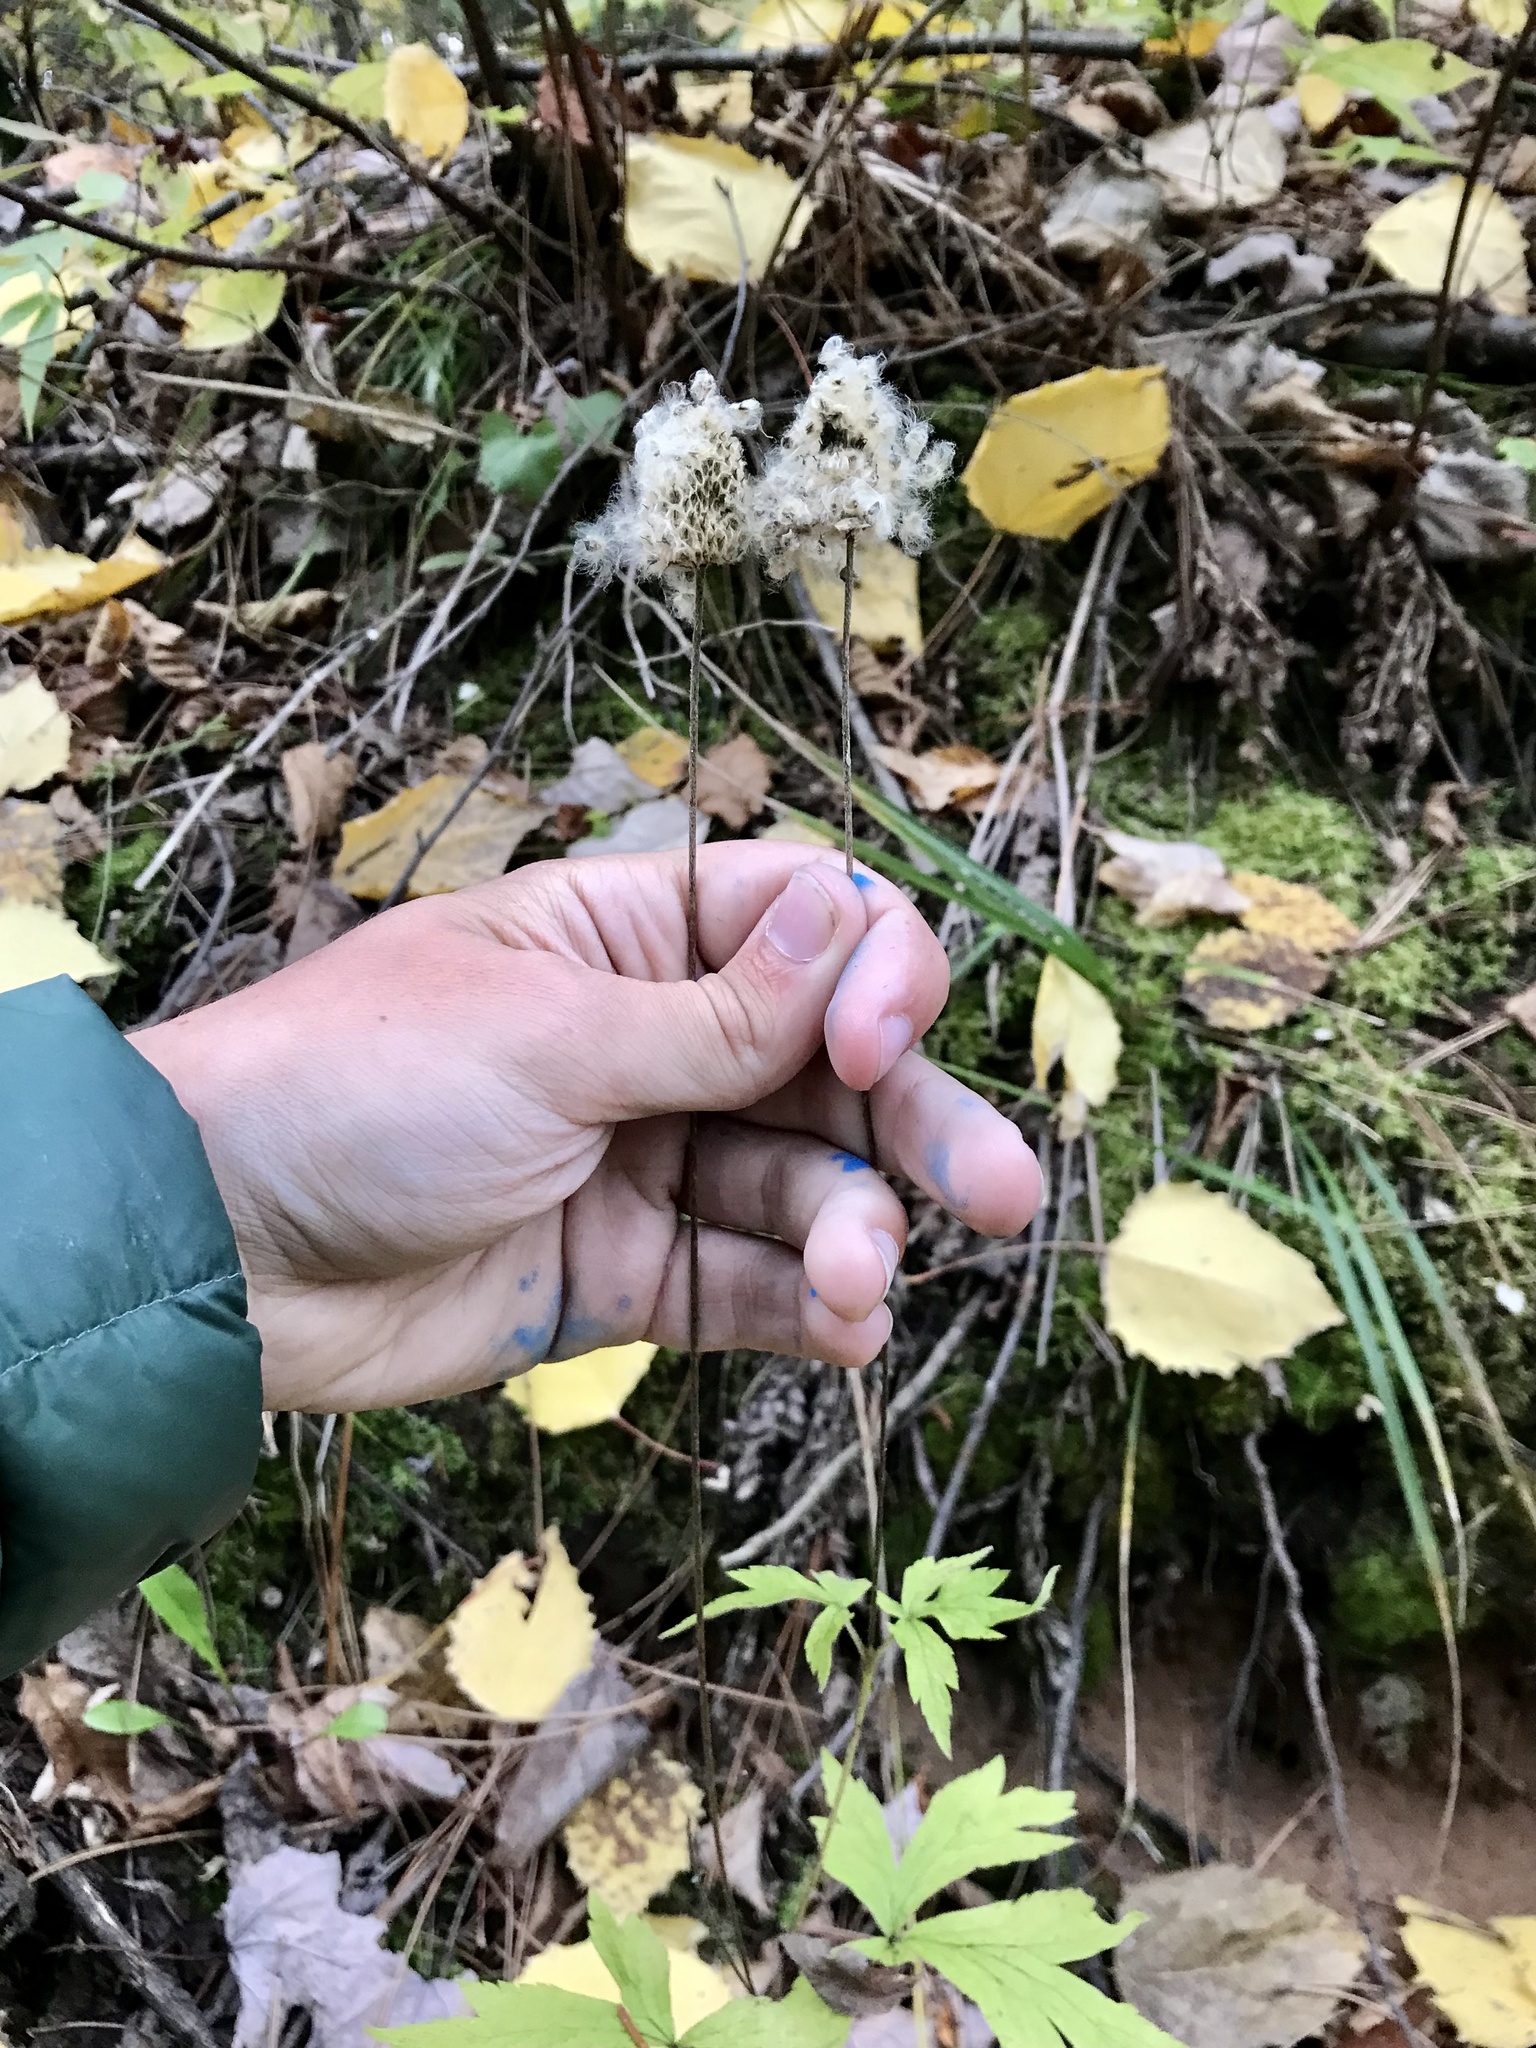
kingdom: Plantae
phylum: Tracheophyta
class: Magnoliopsida
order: Ranunculales
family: Ranunculaceae
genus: Anemone
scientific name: Anemone virginiana
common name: Tall anemone
